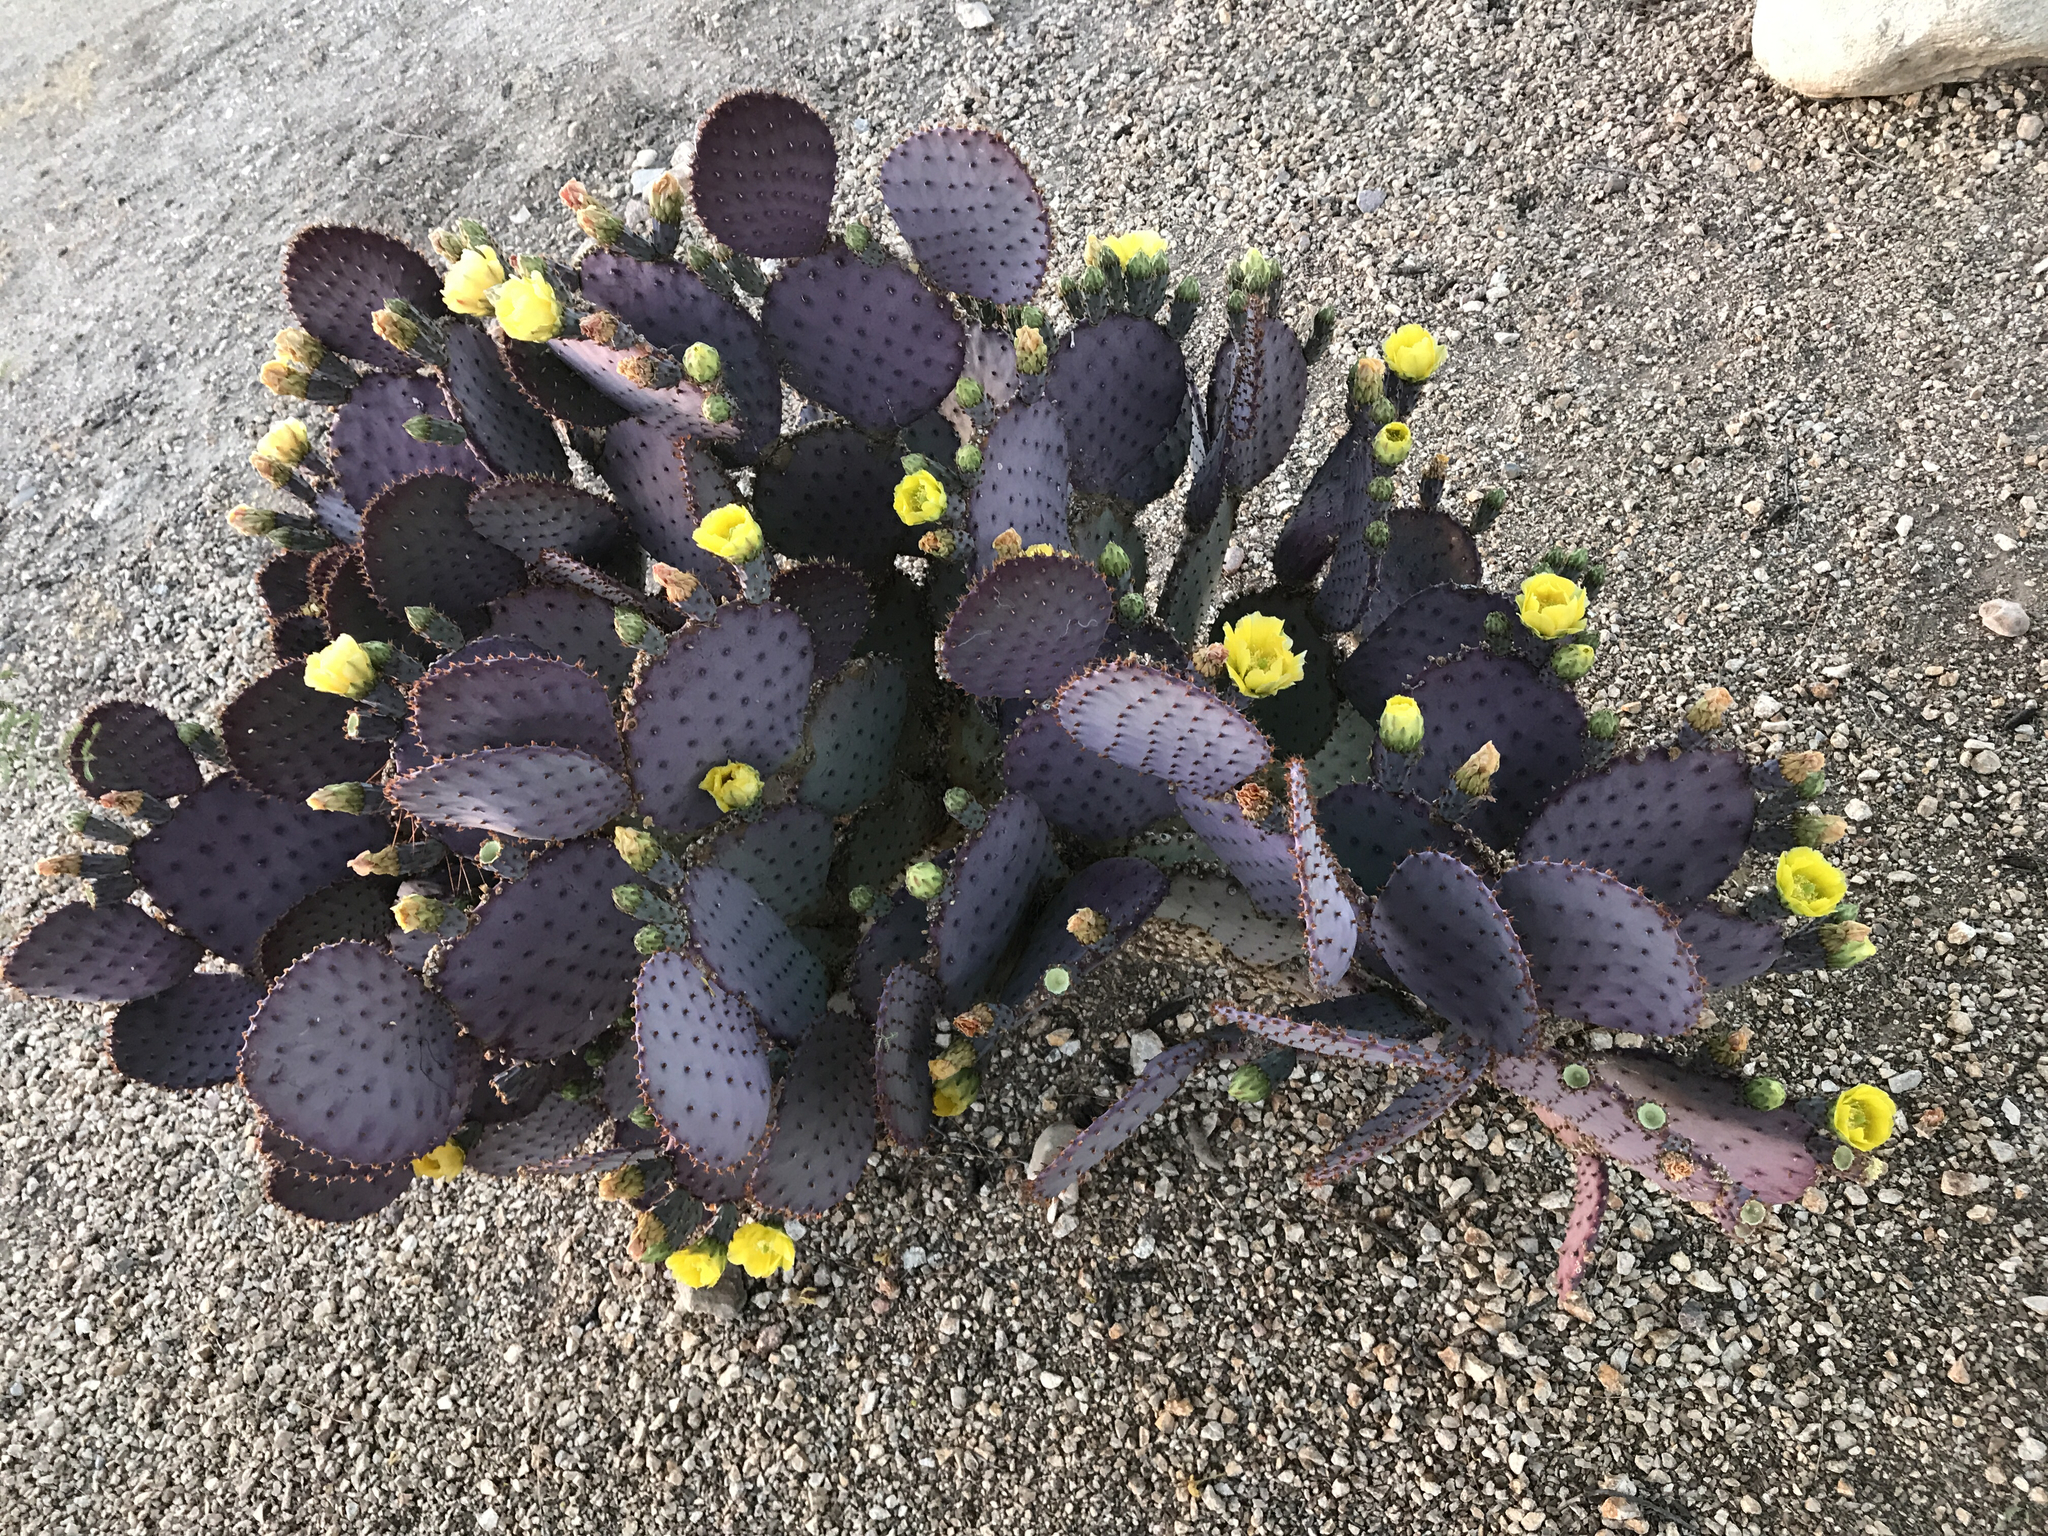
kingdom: Plantae
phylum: Tracheophyta
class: Magnoliopsida
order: Caryophyllales
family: Cactaceae
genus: Opuntia
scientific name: Opuntia gosseliniana
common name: Violet prickly-pear
